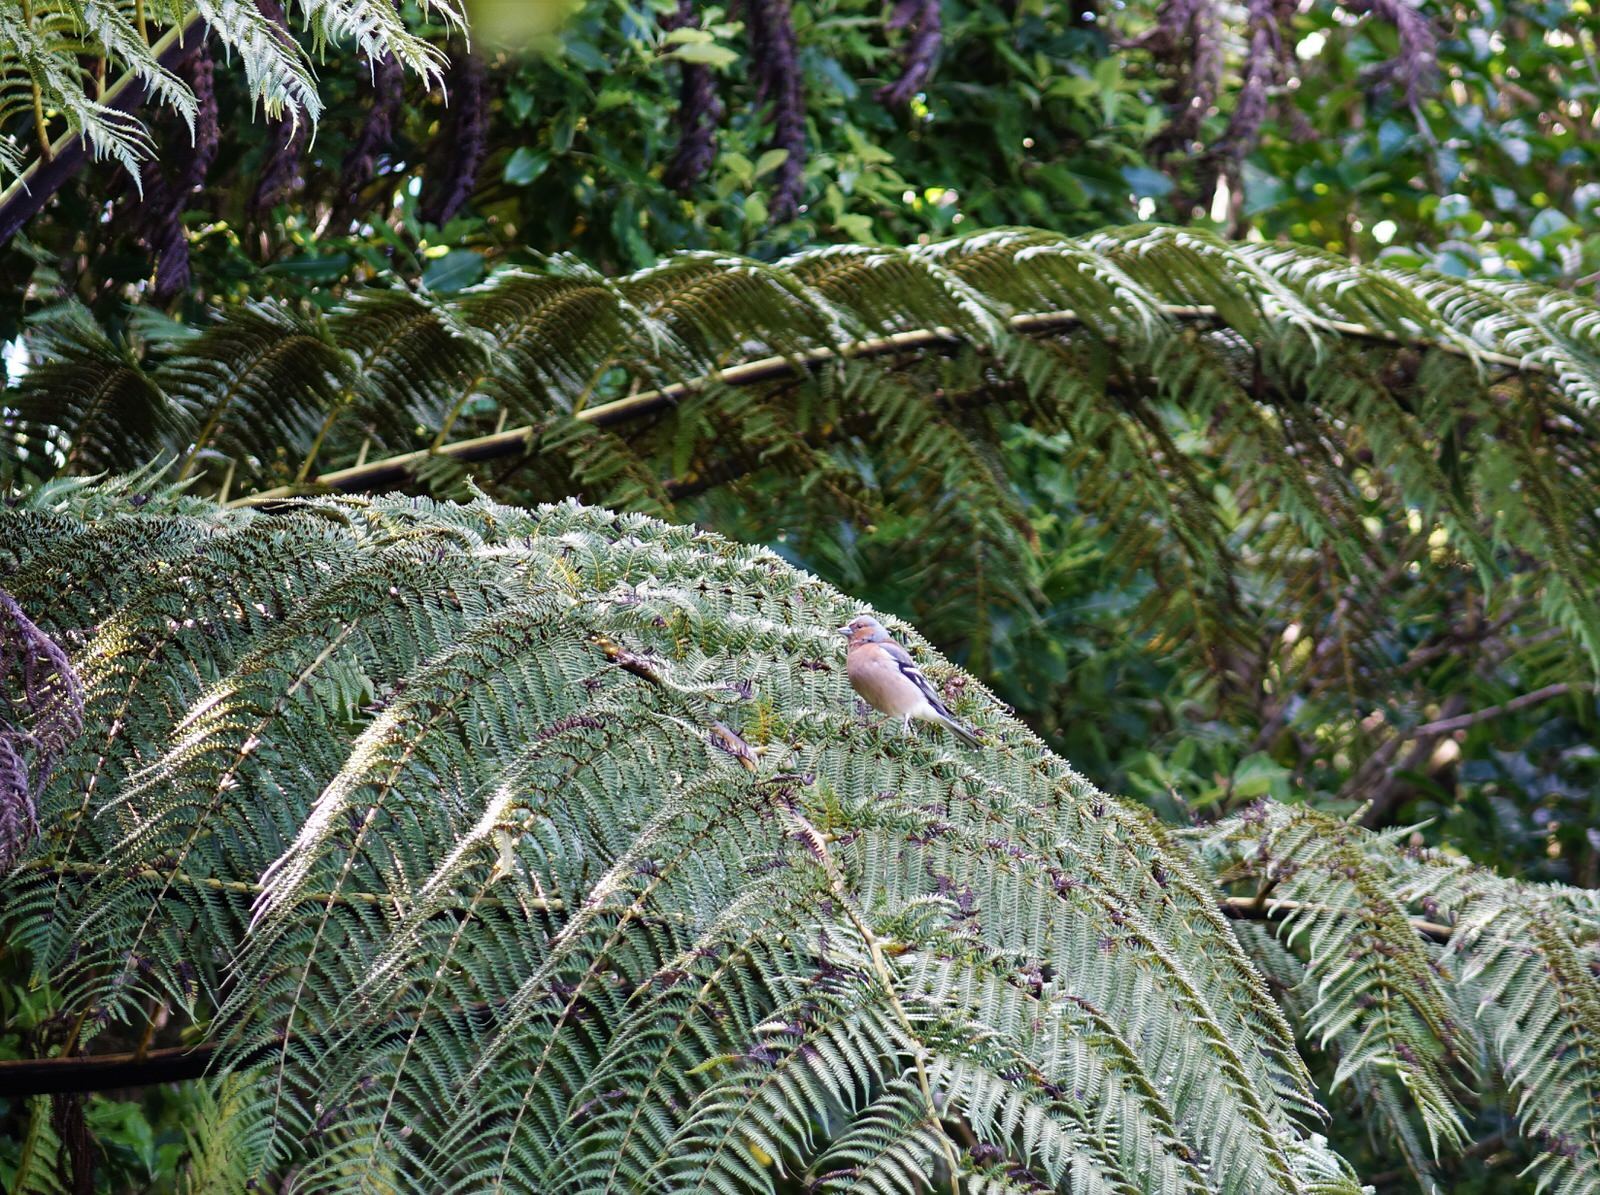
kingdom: Animalia
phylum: Chordata
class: Aves
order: Passeriformes
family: Fringillidae
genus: Fringilla
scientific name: Fringilla coelebs
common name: Common chaffinch
